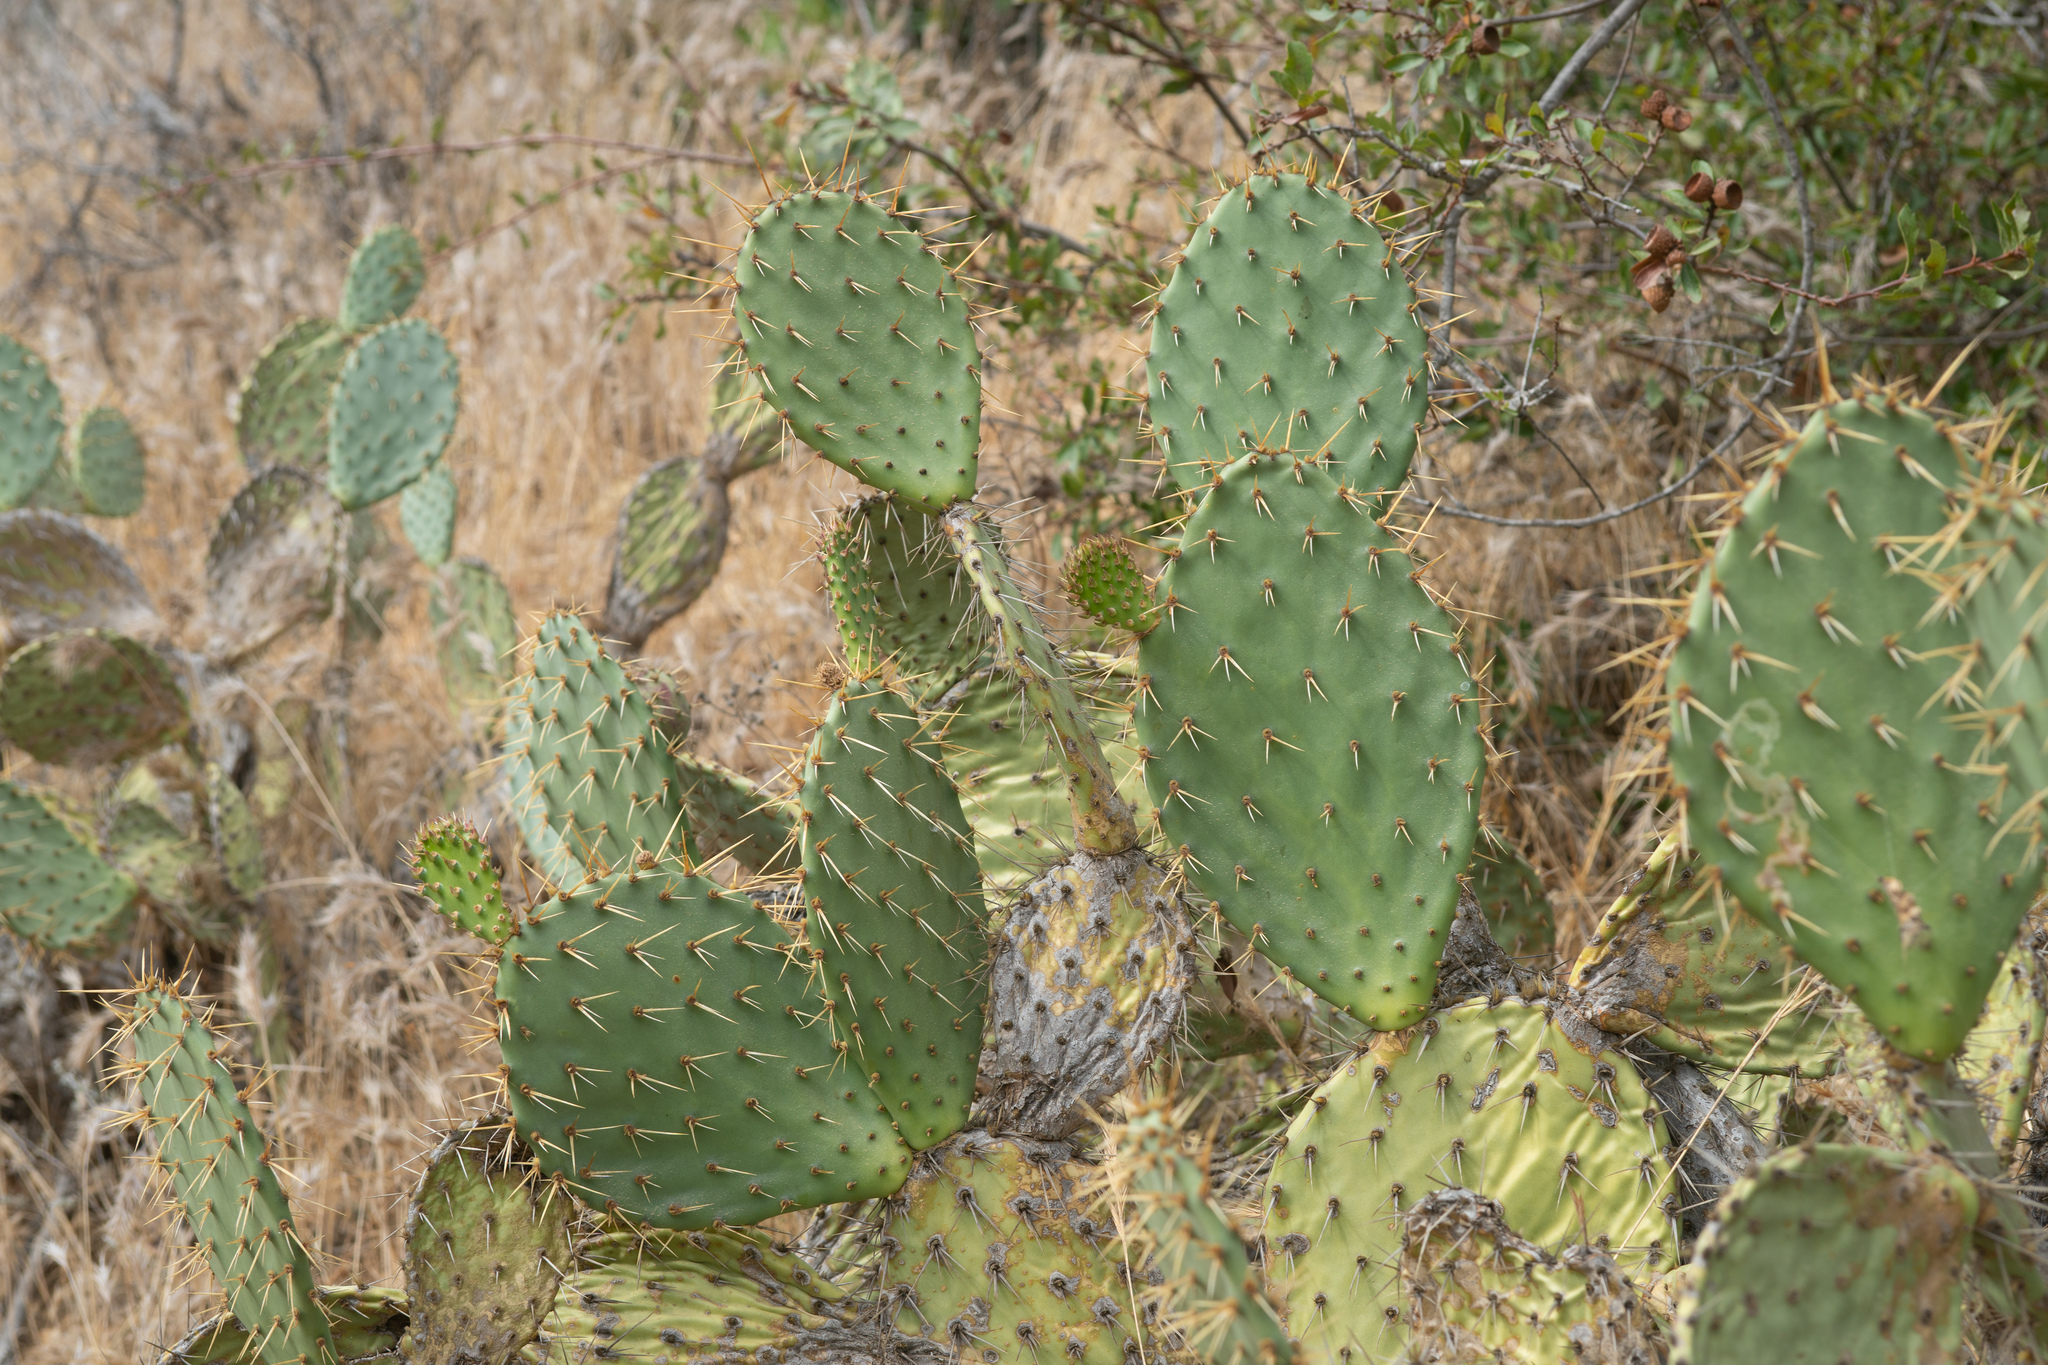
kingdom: Plantae
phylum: Tracheophyta
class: Magnoliopsida
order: Caryophyllales
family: Cactaceae
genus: Opuntia
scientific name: Opuntia littoralis
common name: Coastal prickly-pear
